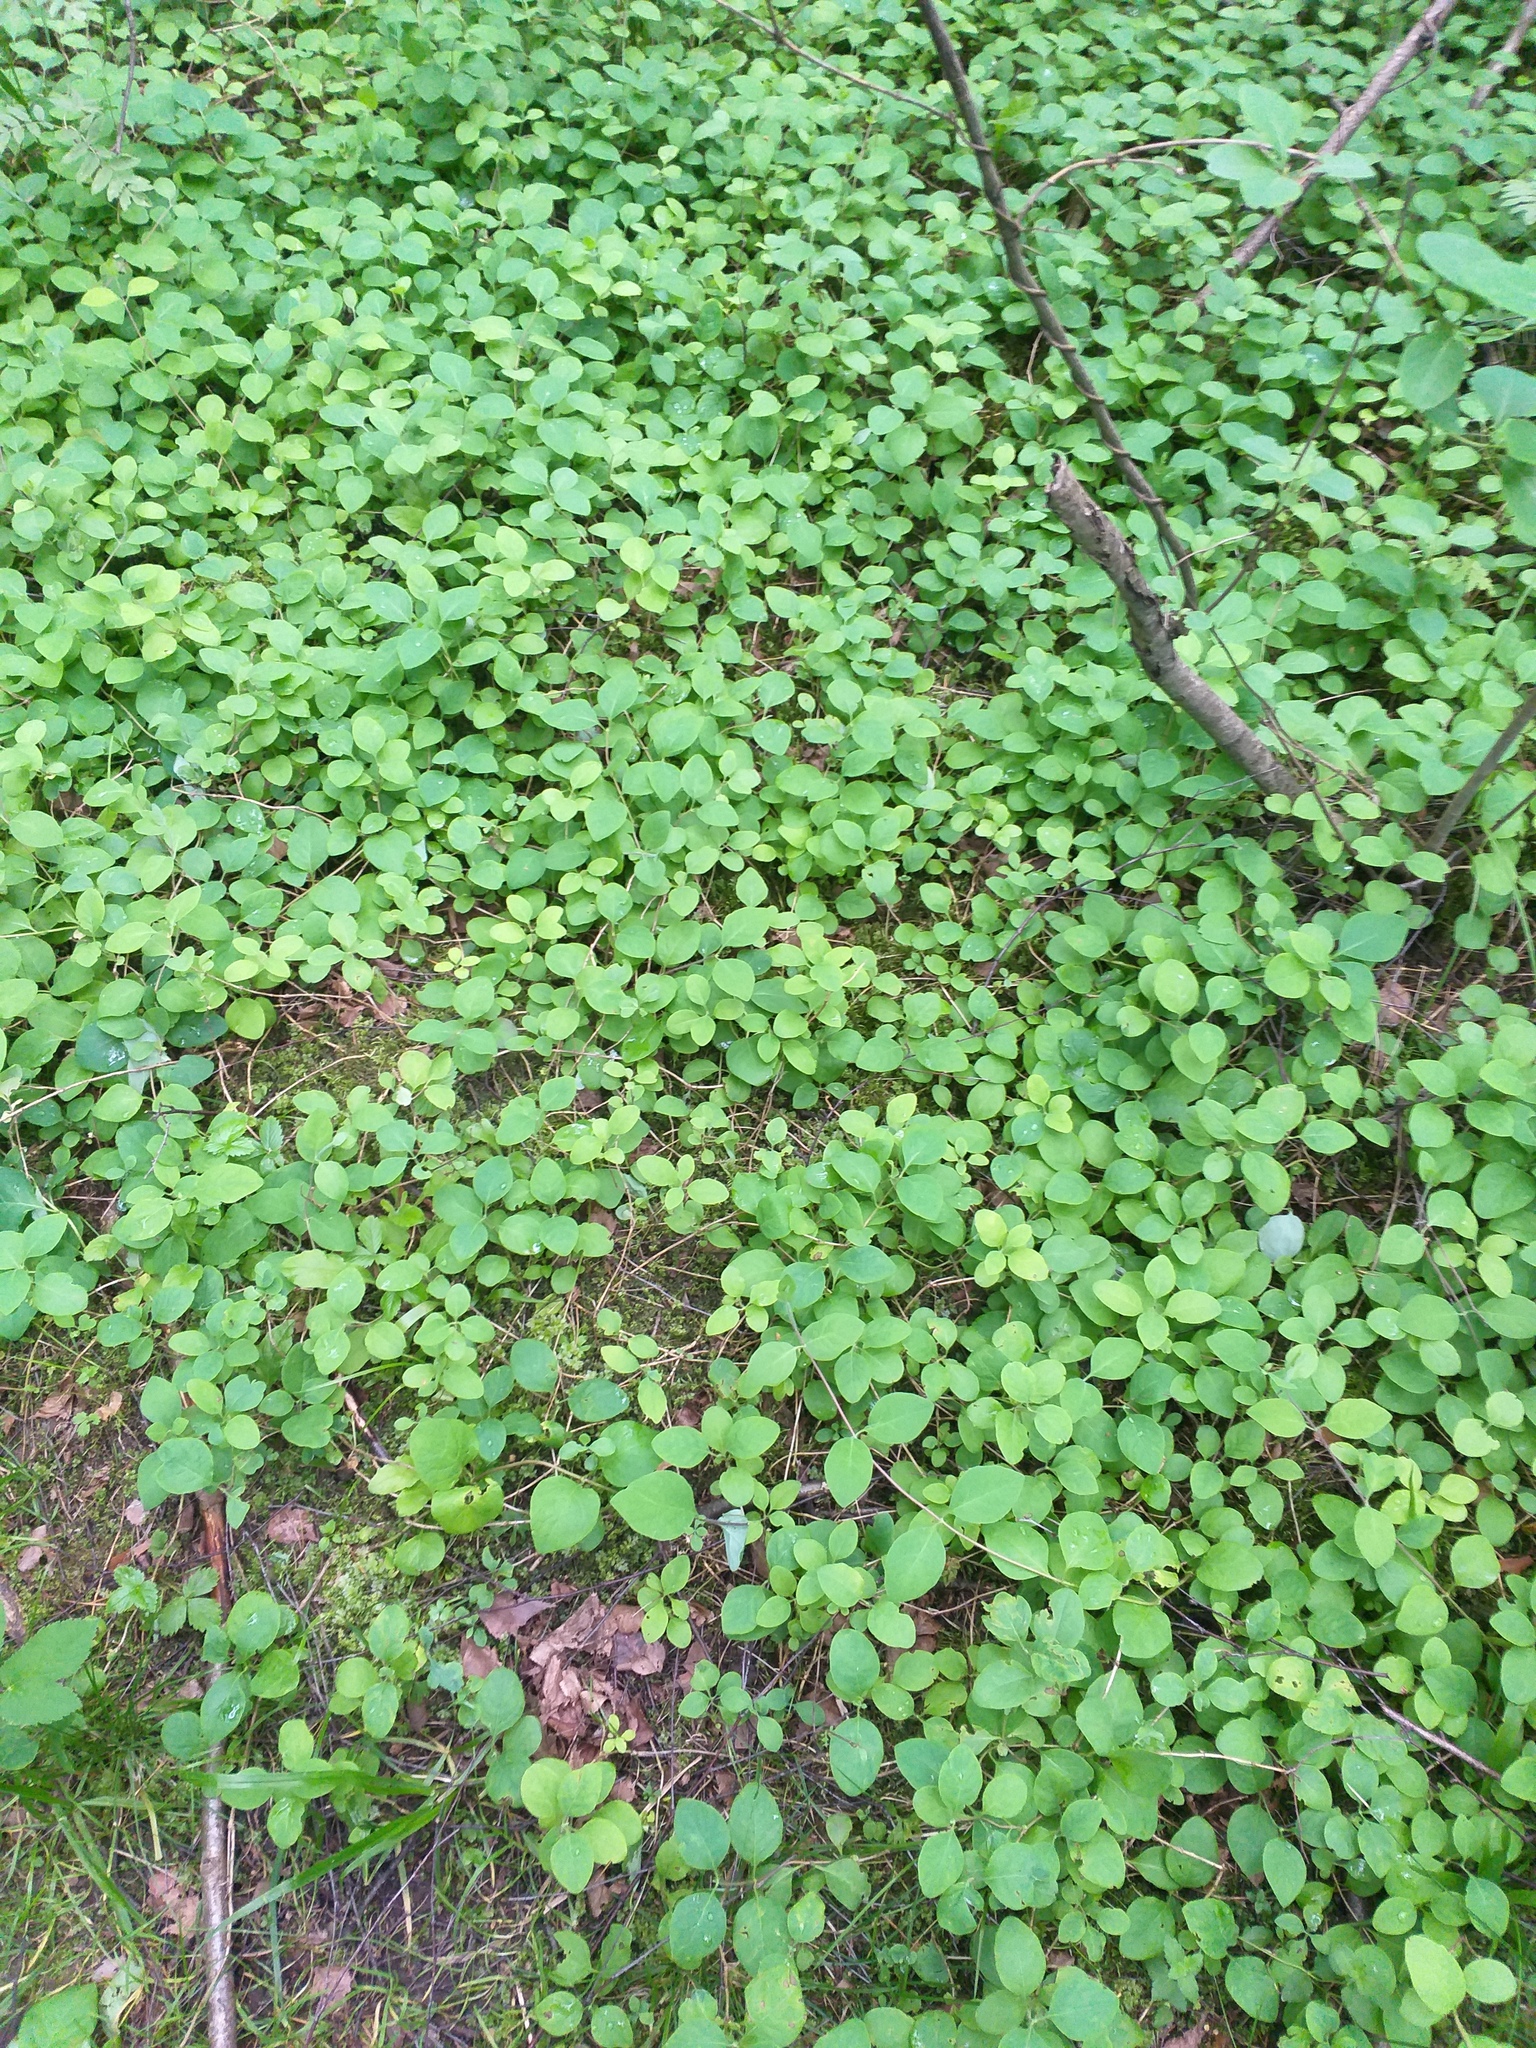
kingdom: Plantae
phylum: Tracheophyta
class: Magnoliopsida
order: Dipsacales
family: Caprifoliaceae
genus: Lonicera
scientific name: Lonicera caprifolium
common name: Perfoliate honeysuckle
